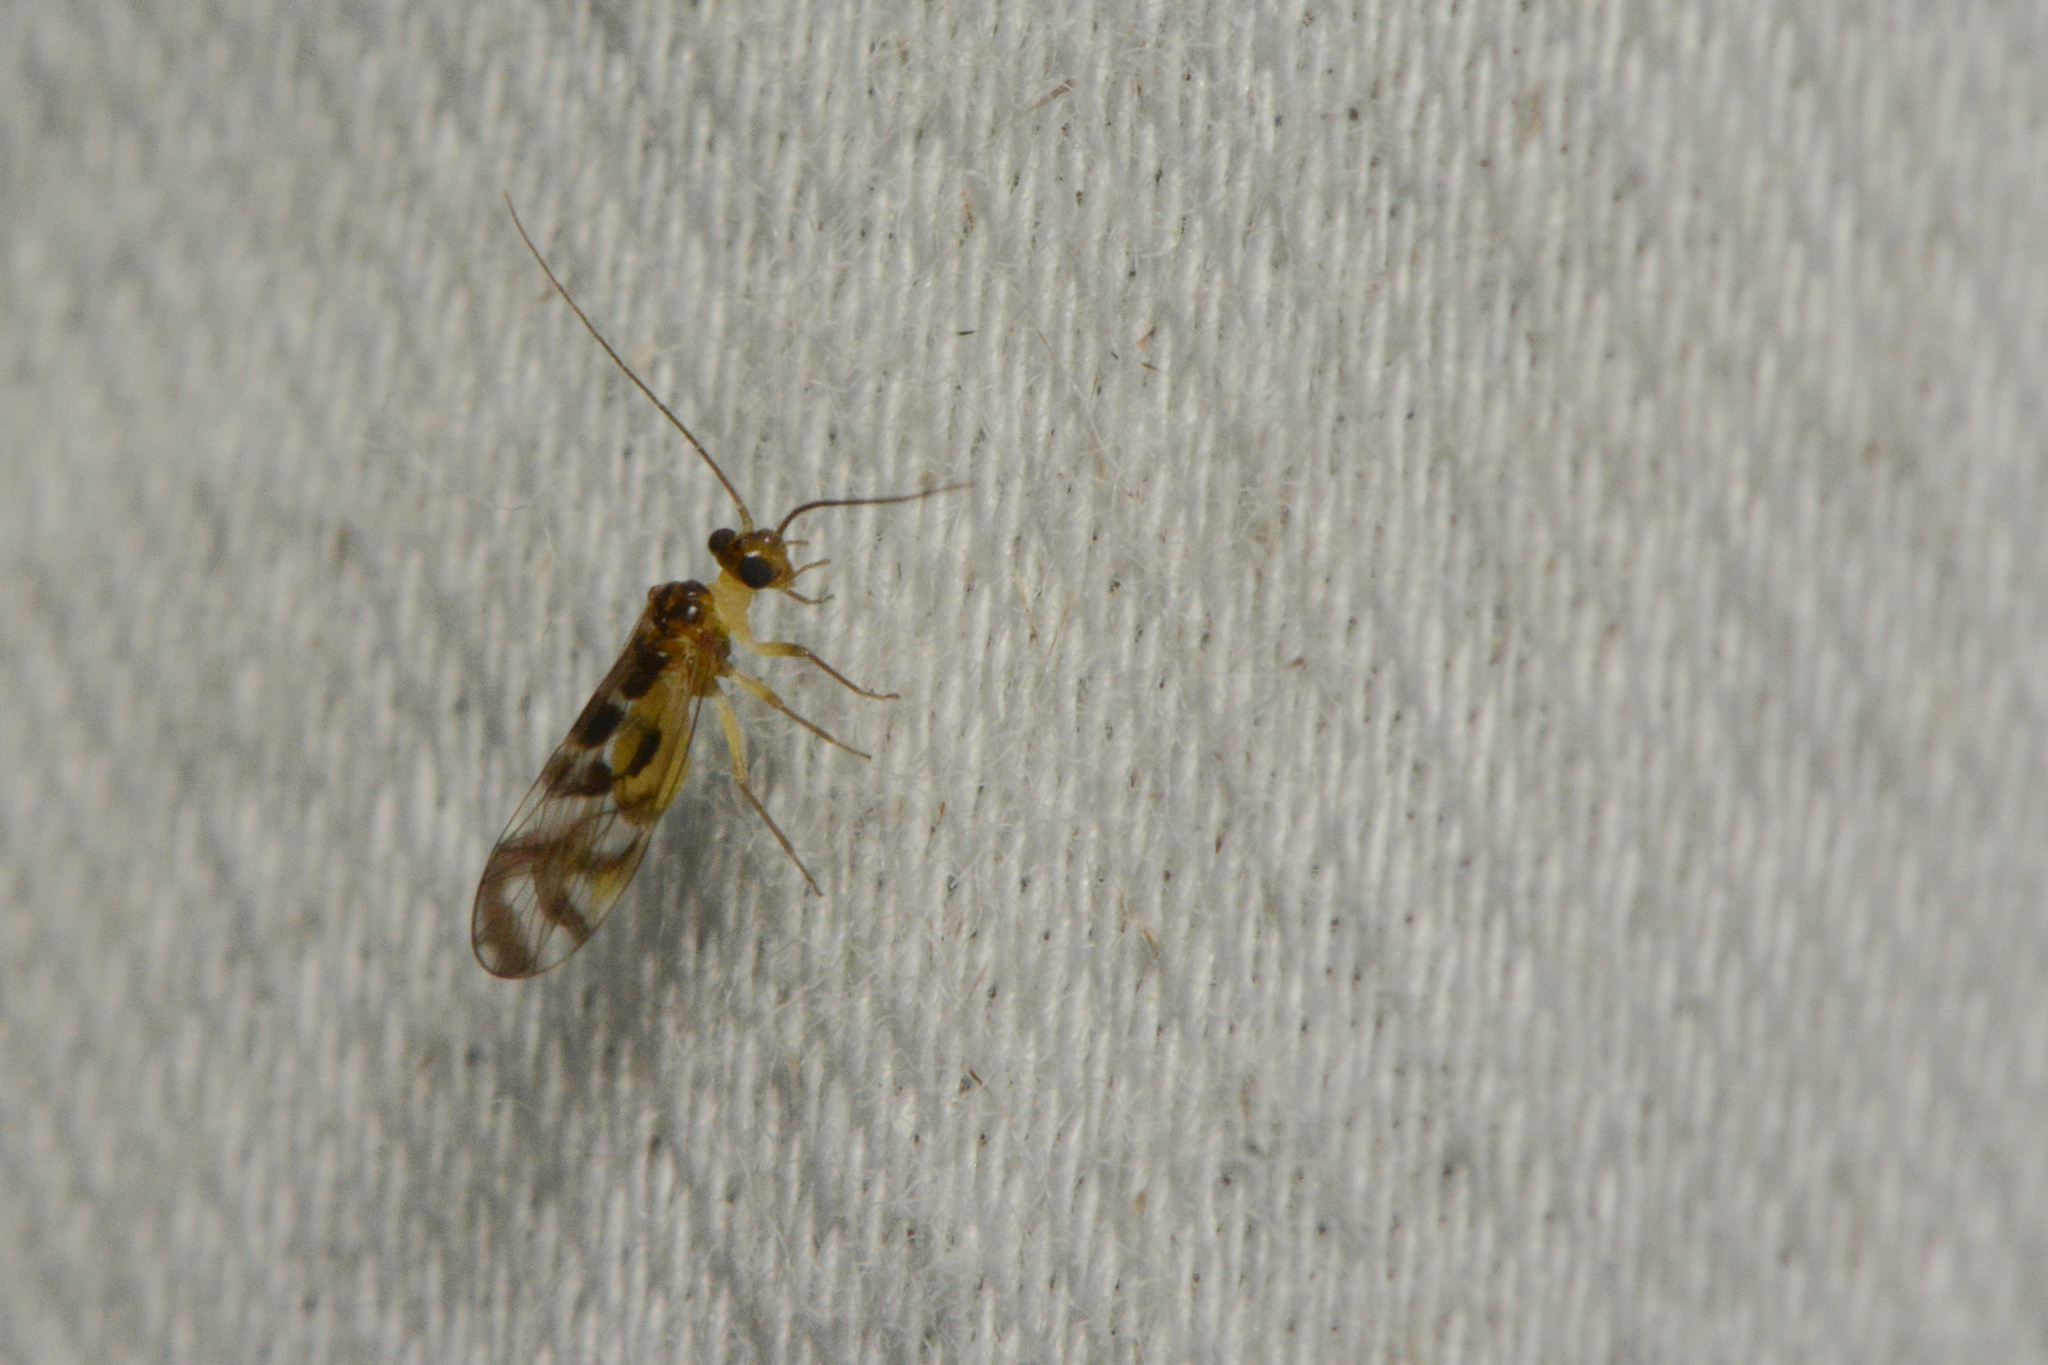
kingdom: Animalia
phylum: Arthropoda
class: Insecta
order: Psocodea
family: Stenopsocidae
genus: Graphopsocus
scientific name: Graphopsocus cruciatus
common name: Lizard bark louse
